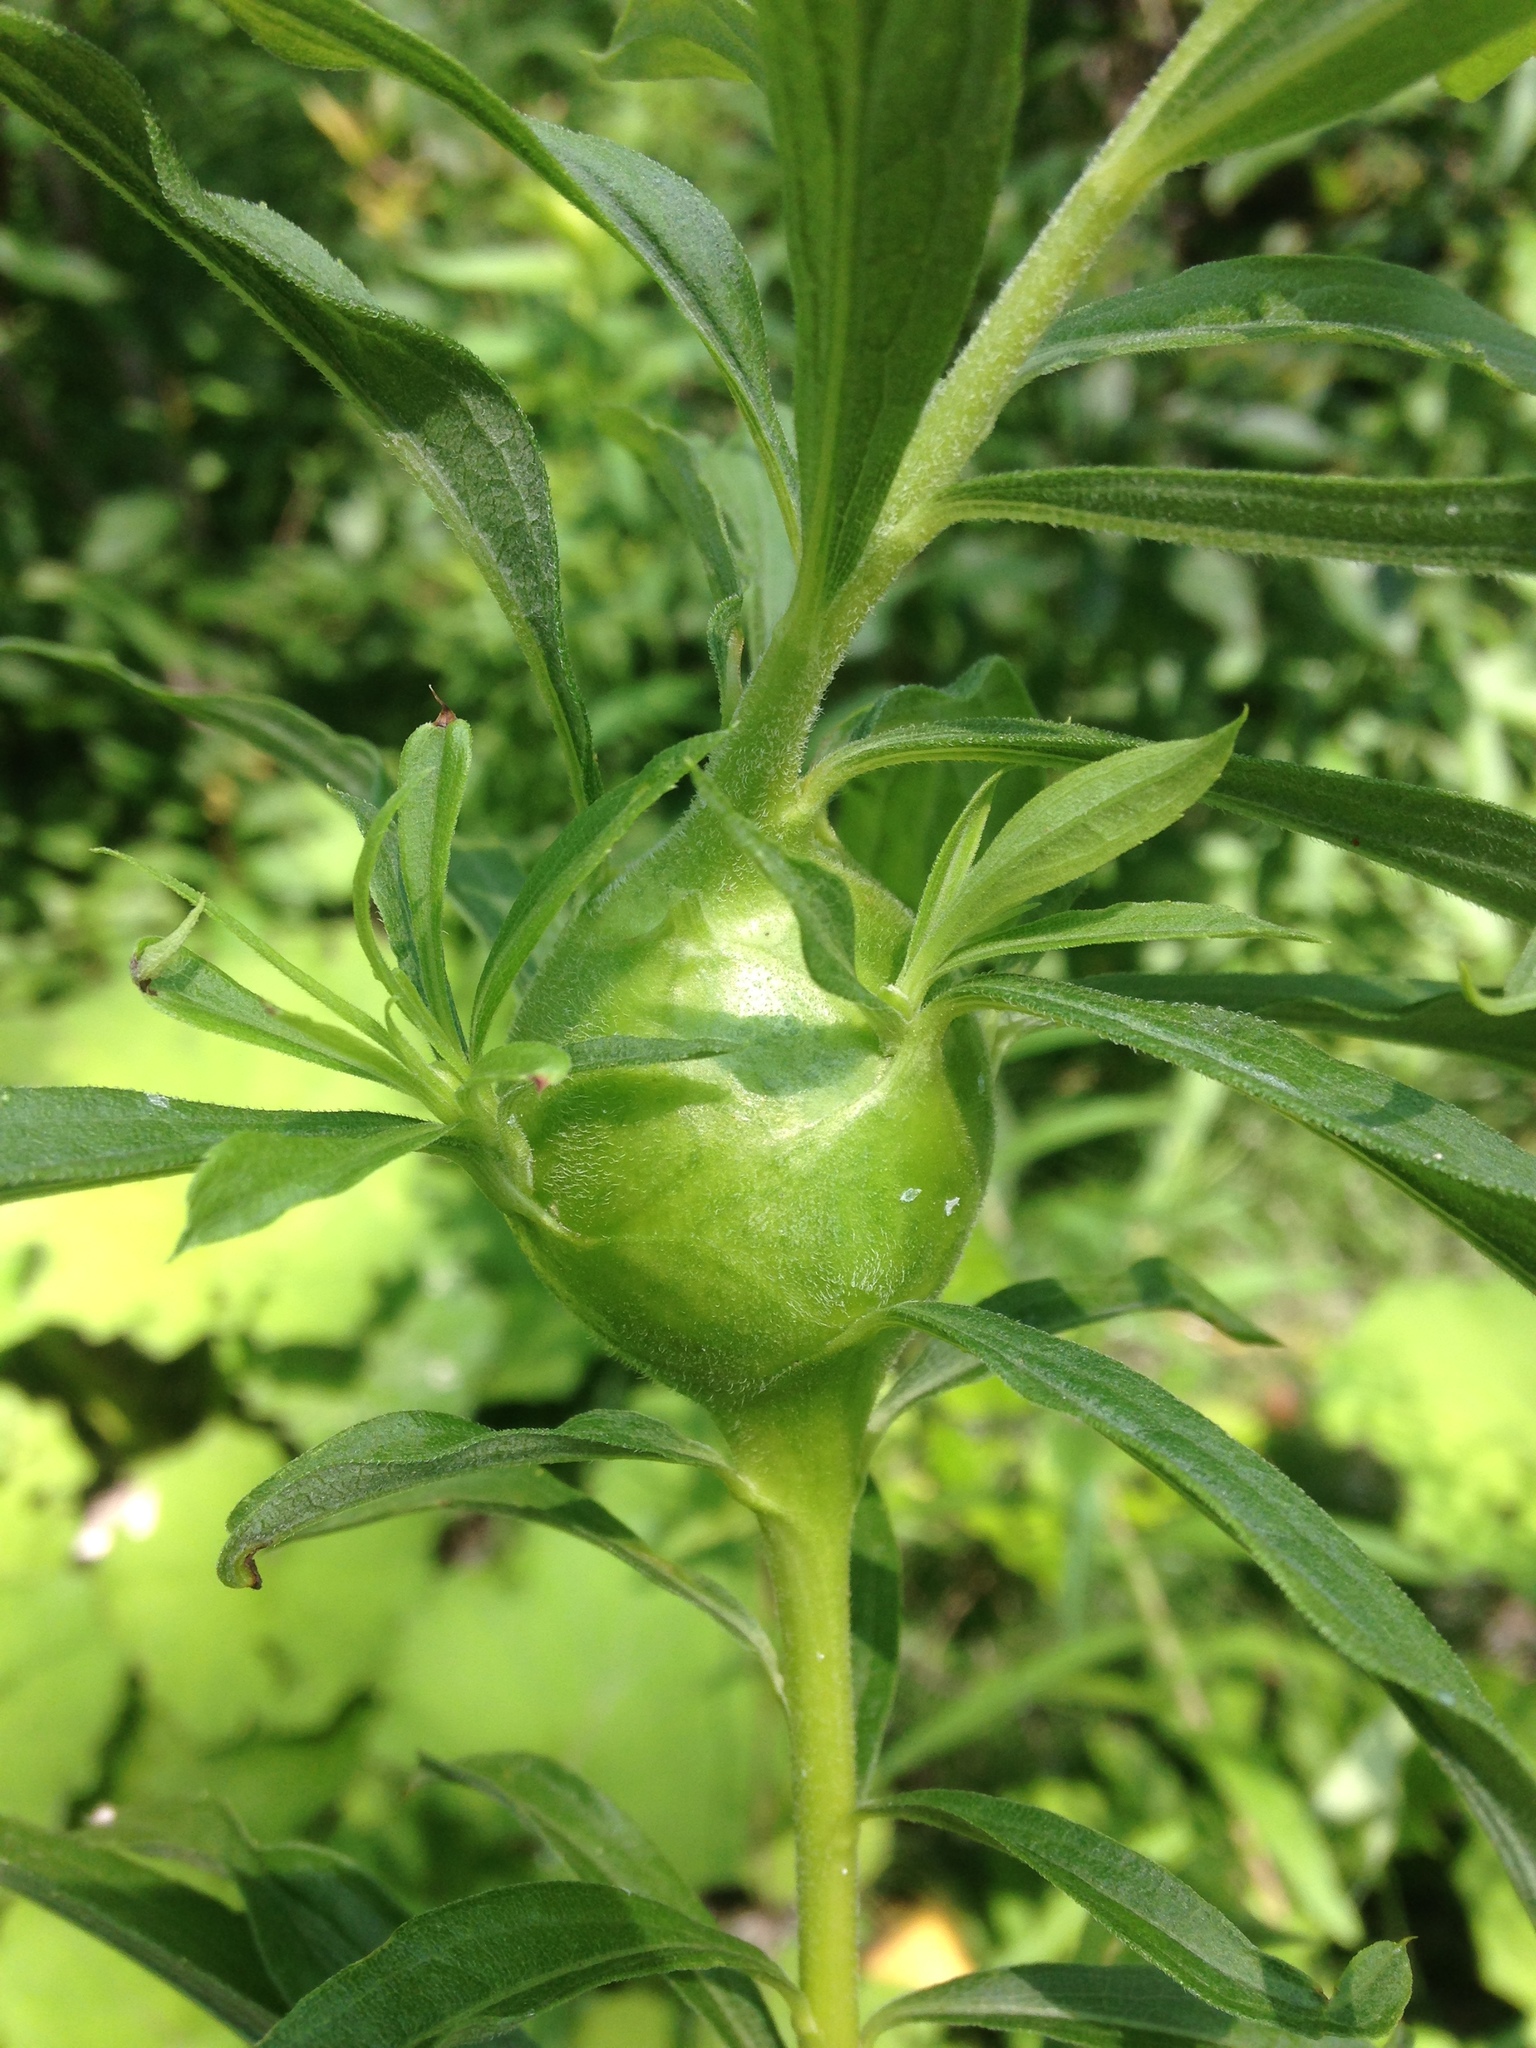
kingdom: Animalia
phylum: Arthropoda
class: Insecta
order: Diptera
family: Tephritidae
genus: Eurosta
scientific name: Eurosta solidaginis
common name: Goldenrod gall fly
